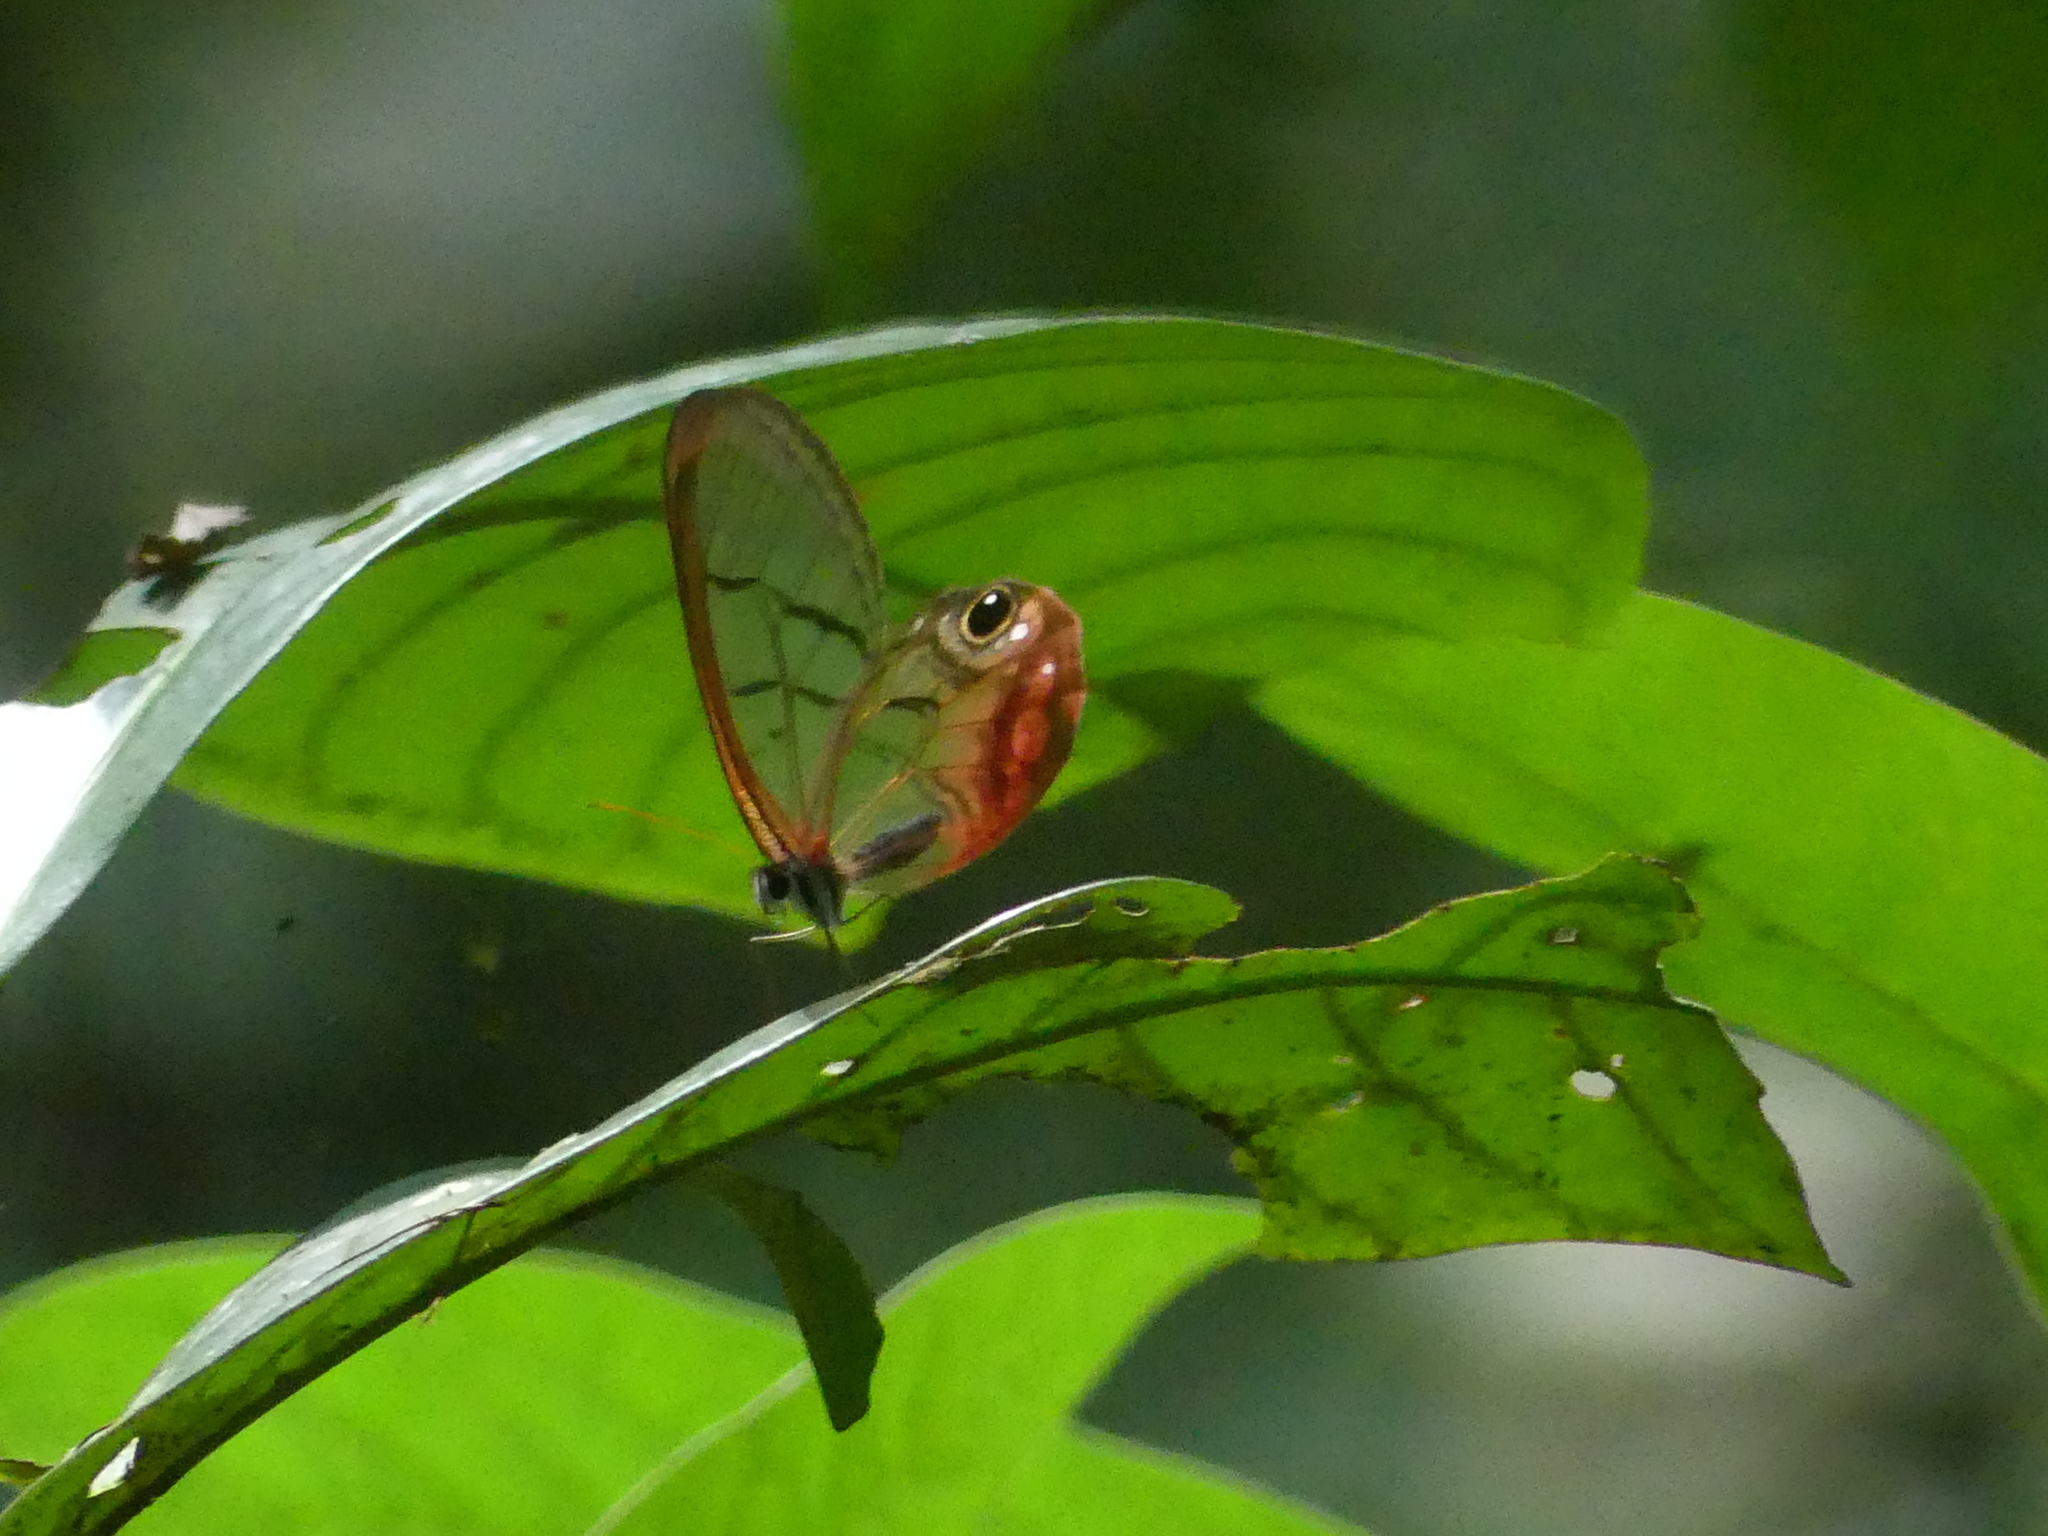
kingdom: Animalia
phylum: Arthropoda
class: Insecta
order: Lepidoptera
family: Nymphalidae
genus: Cithaerias
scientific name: Cithaerias pireta
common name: Rusted clearwing-satyr
